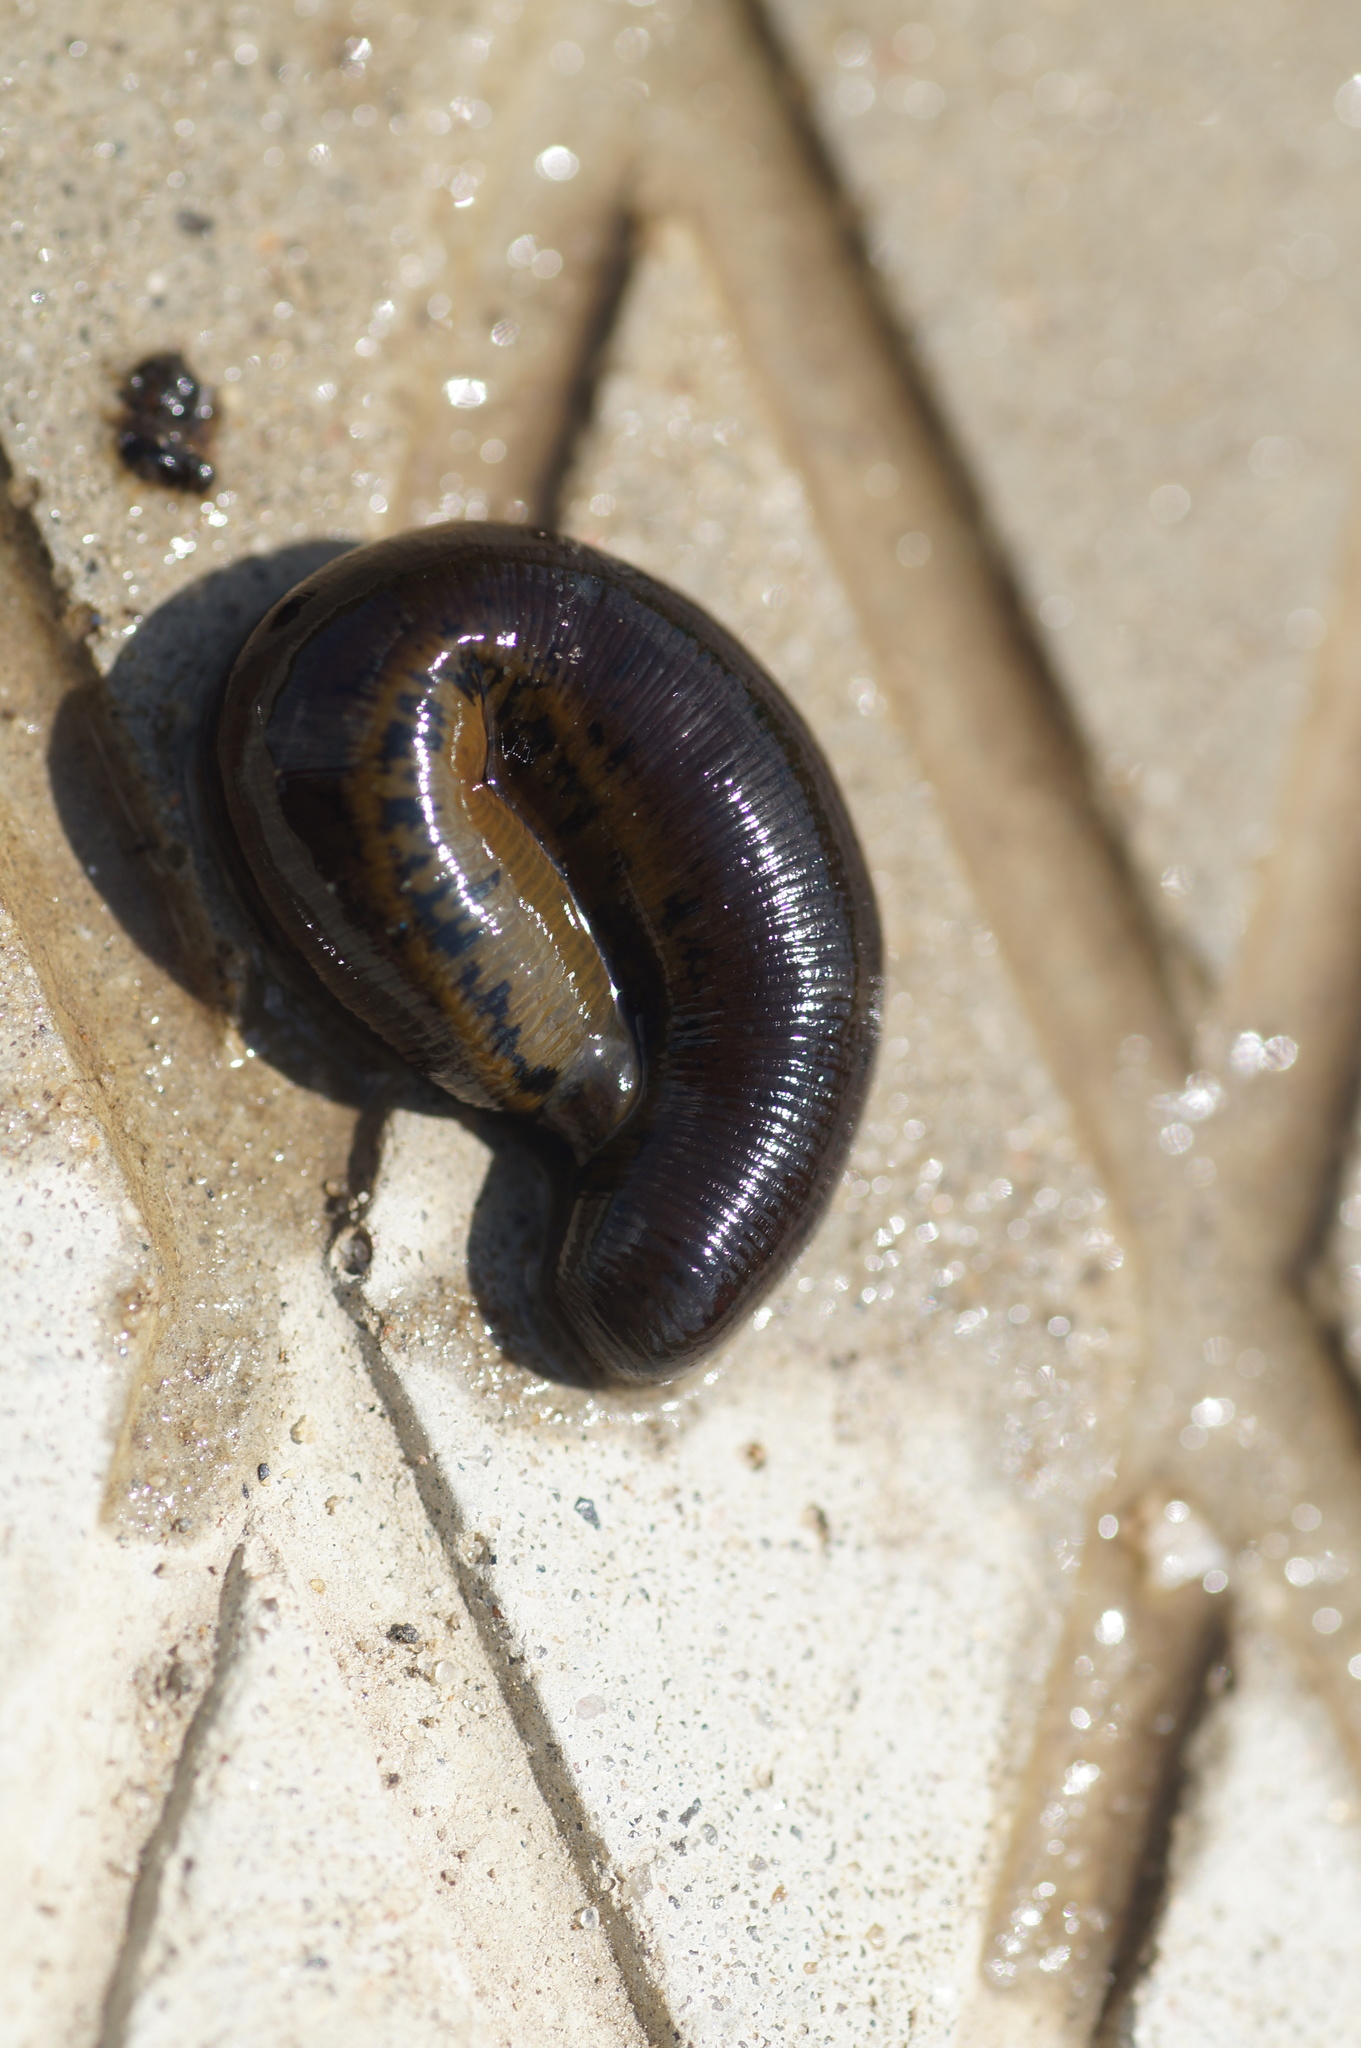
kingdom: Animalia
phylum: Annelida
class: Clitellata
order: Arhynchobdellida
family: Haemopidae
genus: Haemopis
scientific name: Haemopis sanguisuga
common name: Horse leech
